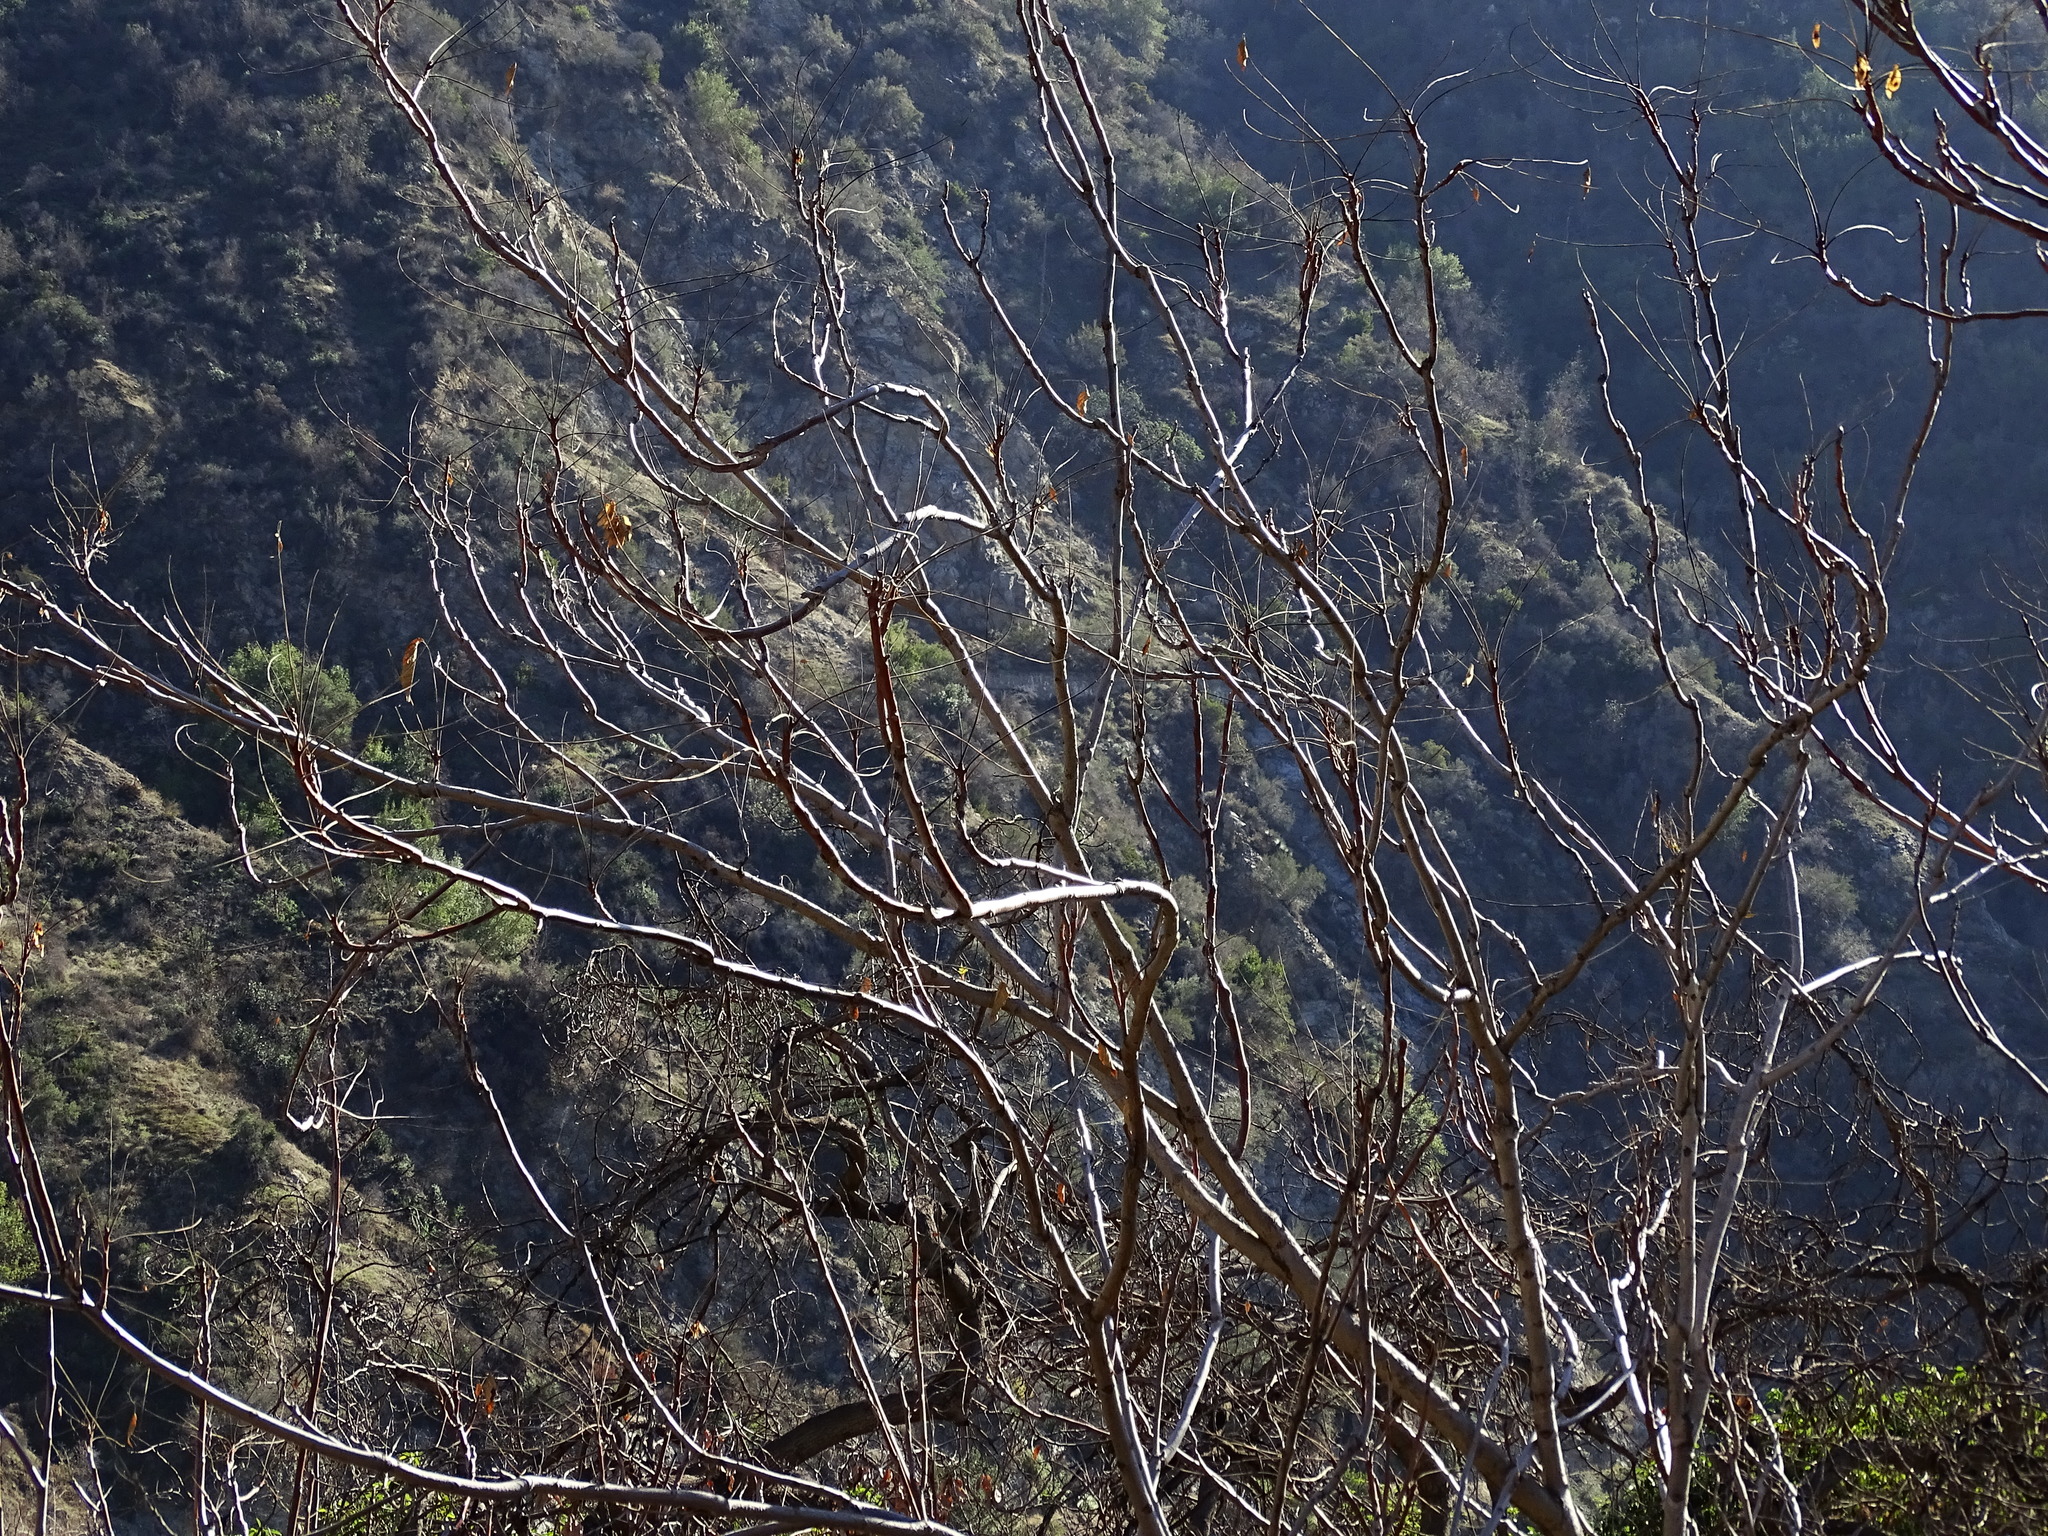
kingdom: Plantae
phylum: Tracheophyta
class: Magnoliopsida
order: Sapindales
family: Simaroubaceae
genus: Ailanthus
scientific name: Ailanthus altissima
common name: Tree-of-heaven
